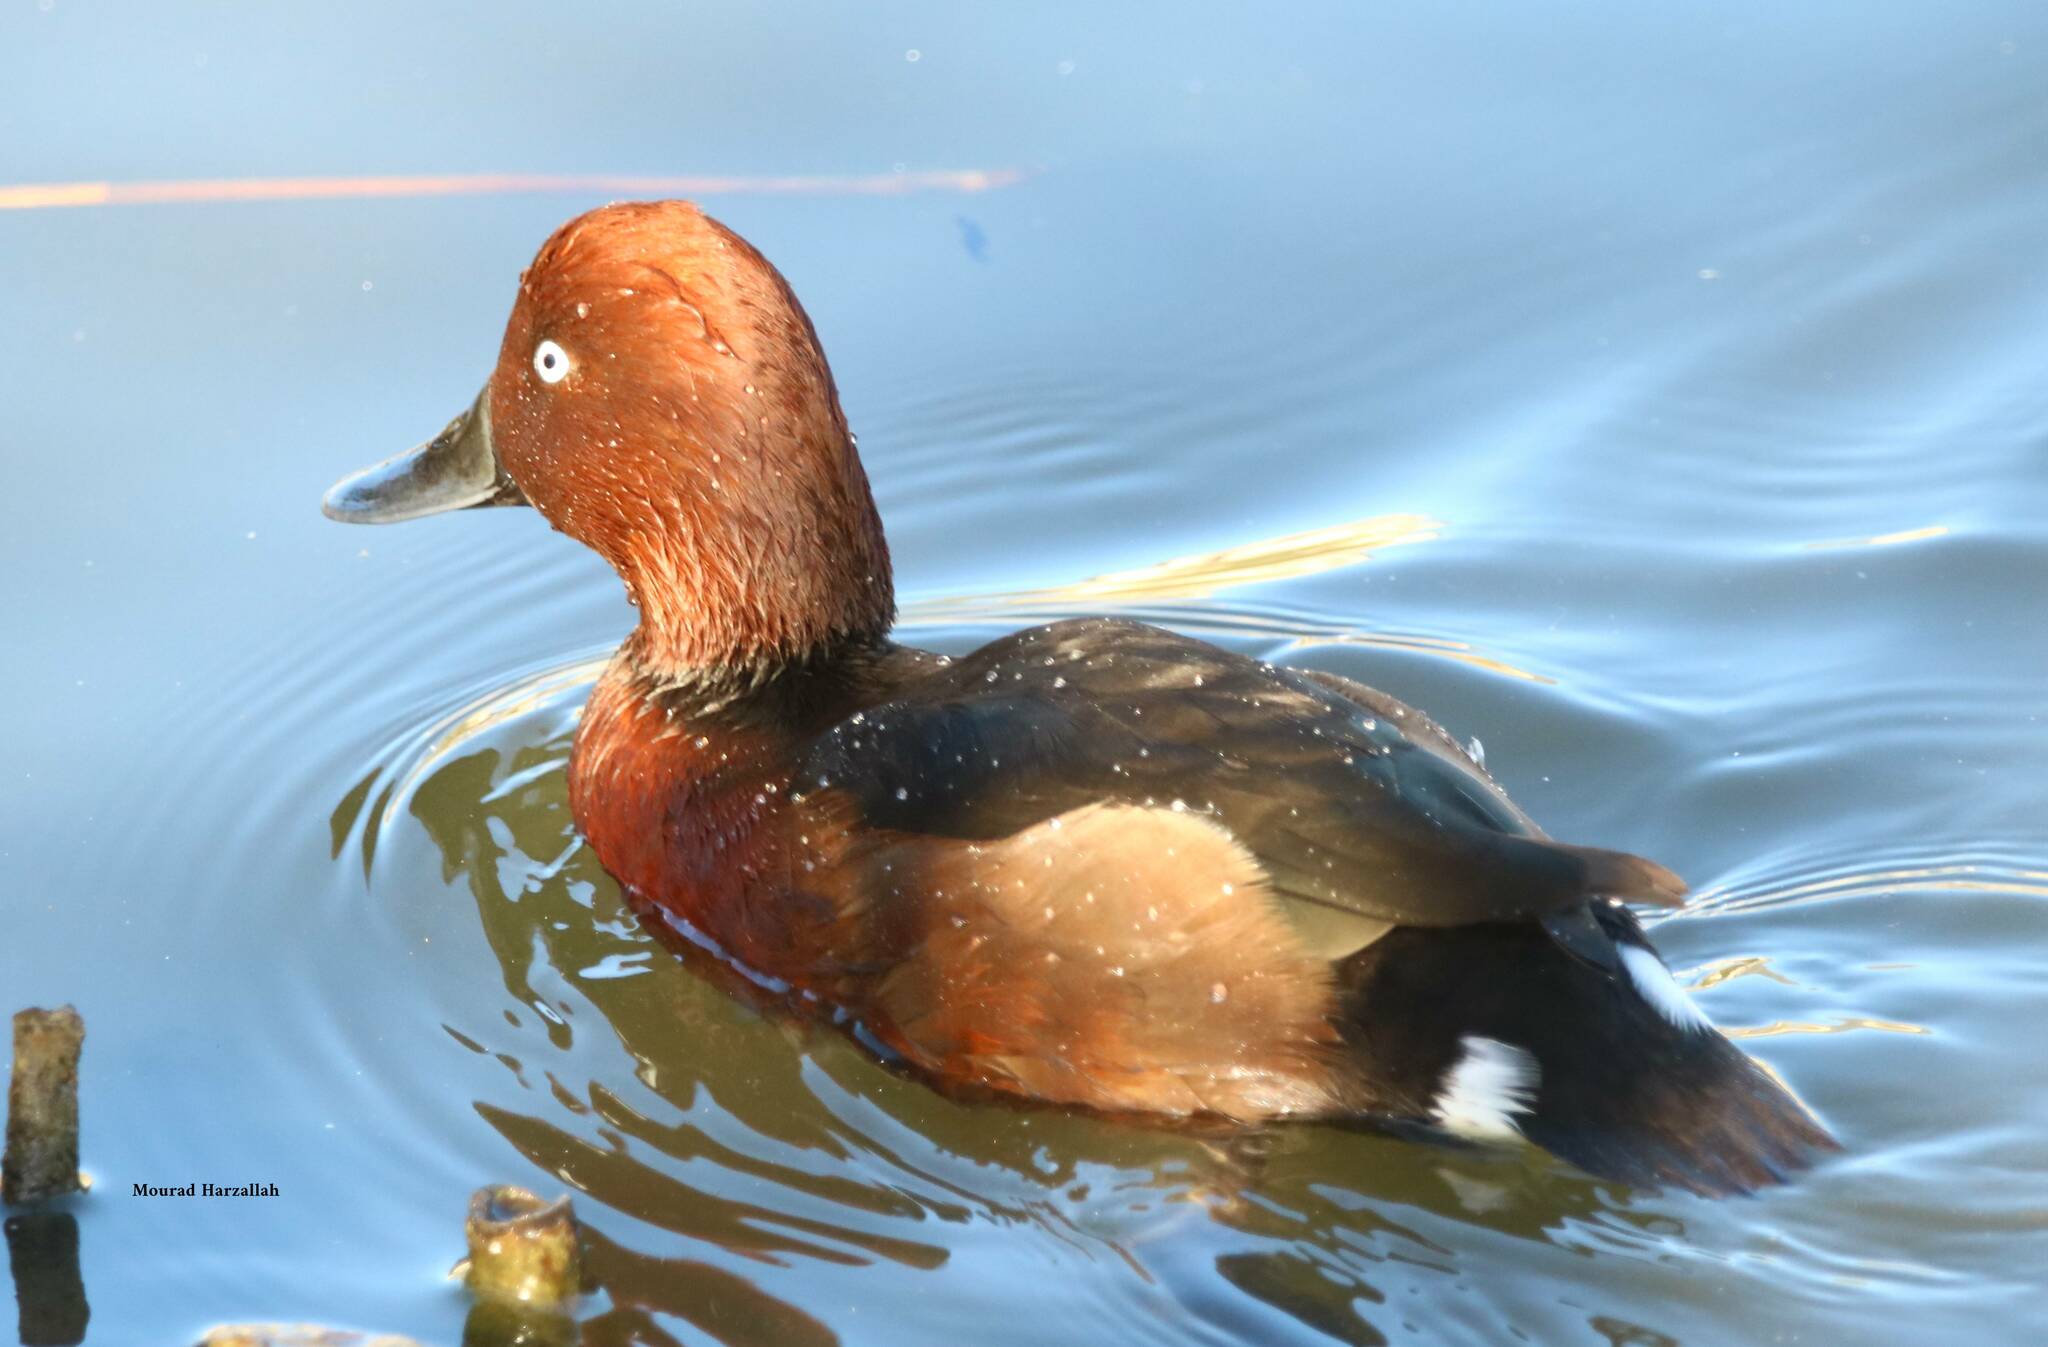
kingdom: Animalia
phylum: Chordata
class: Aves
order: Anseriformes
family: Anatidae
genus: Aythya
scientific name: Aythya nyroca
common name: Ferruginous duck
